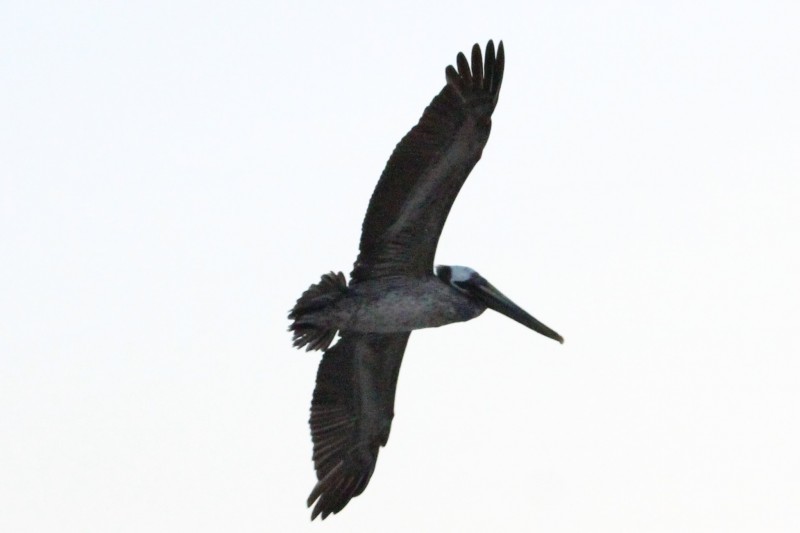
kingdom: Animalia
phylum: Chordata
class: Aves
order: Pelecaniformes
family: Pelecanidae
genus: Pelecanus
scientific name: Pelecanus occidentalis
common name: Brown pelican
